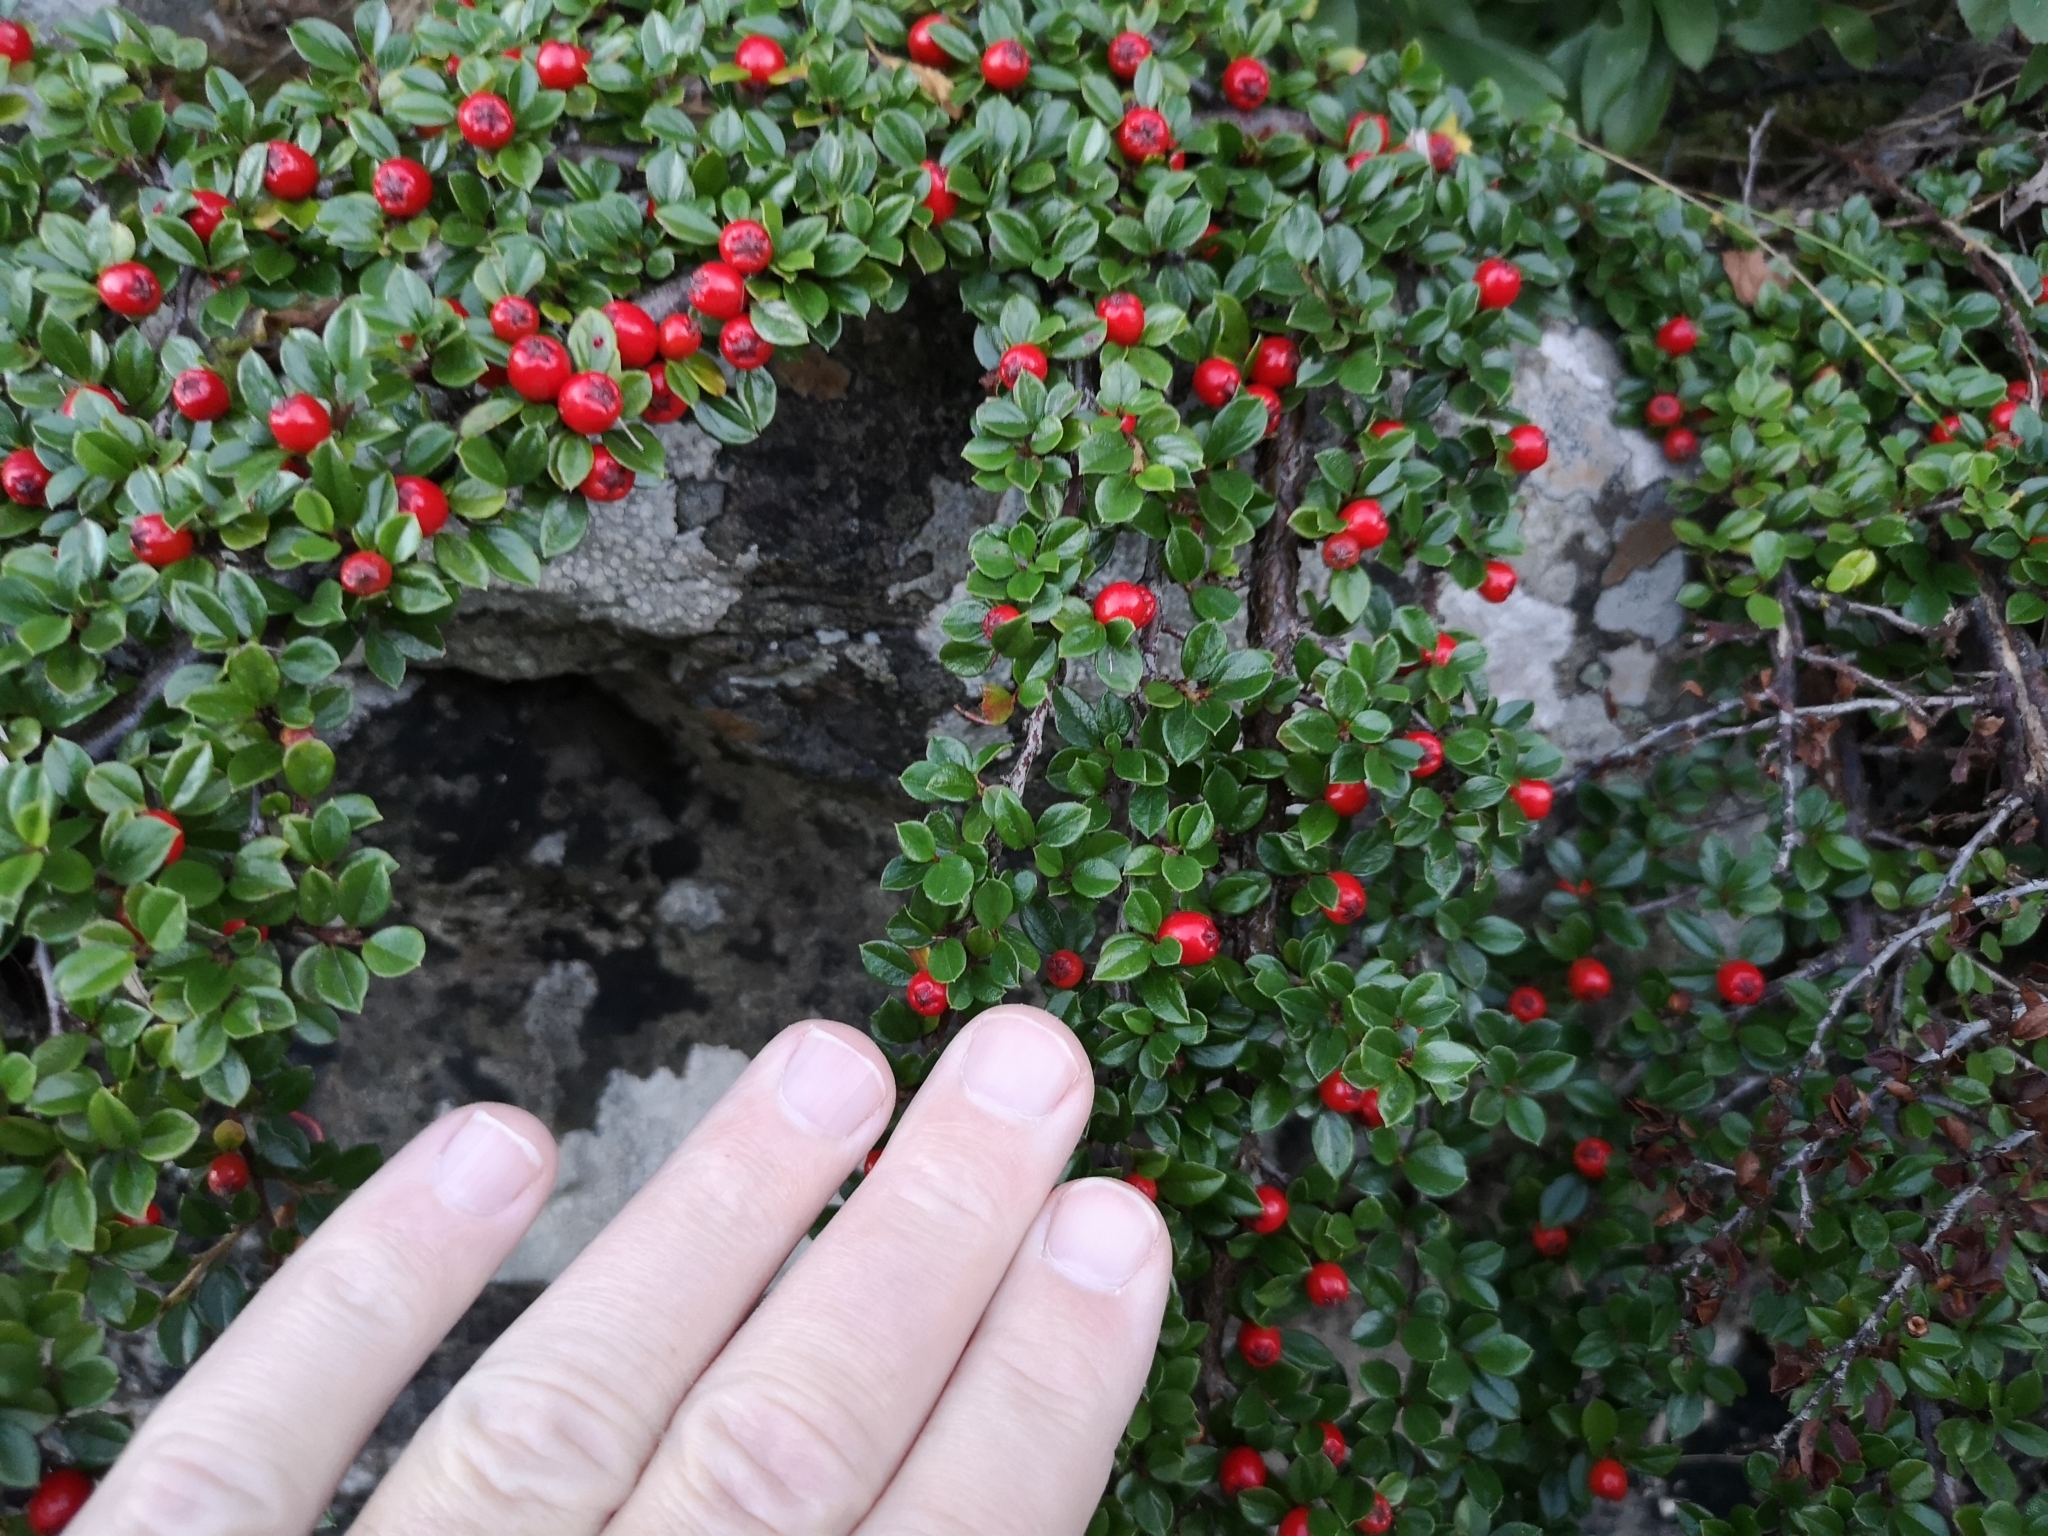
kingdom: Plantae
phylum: Tracheophyta
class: Magnoliopsida
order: Rosales
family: Rosaceae
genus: Cotoneaster
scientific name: Cotoneaster horizontalis
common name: Wall cotoneaster
